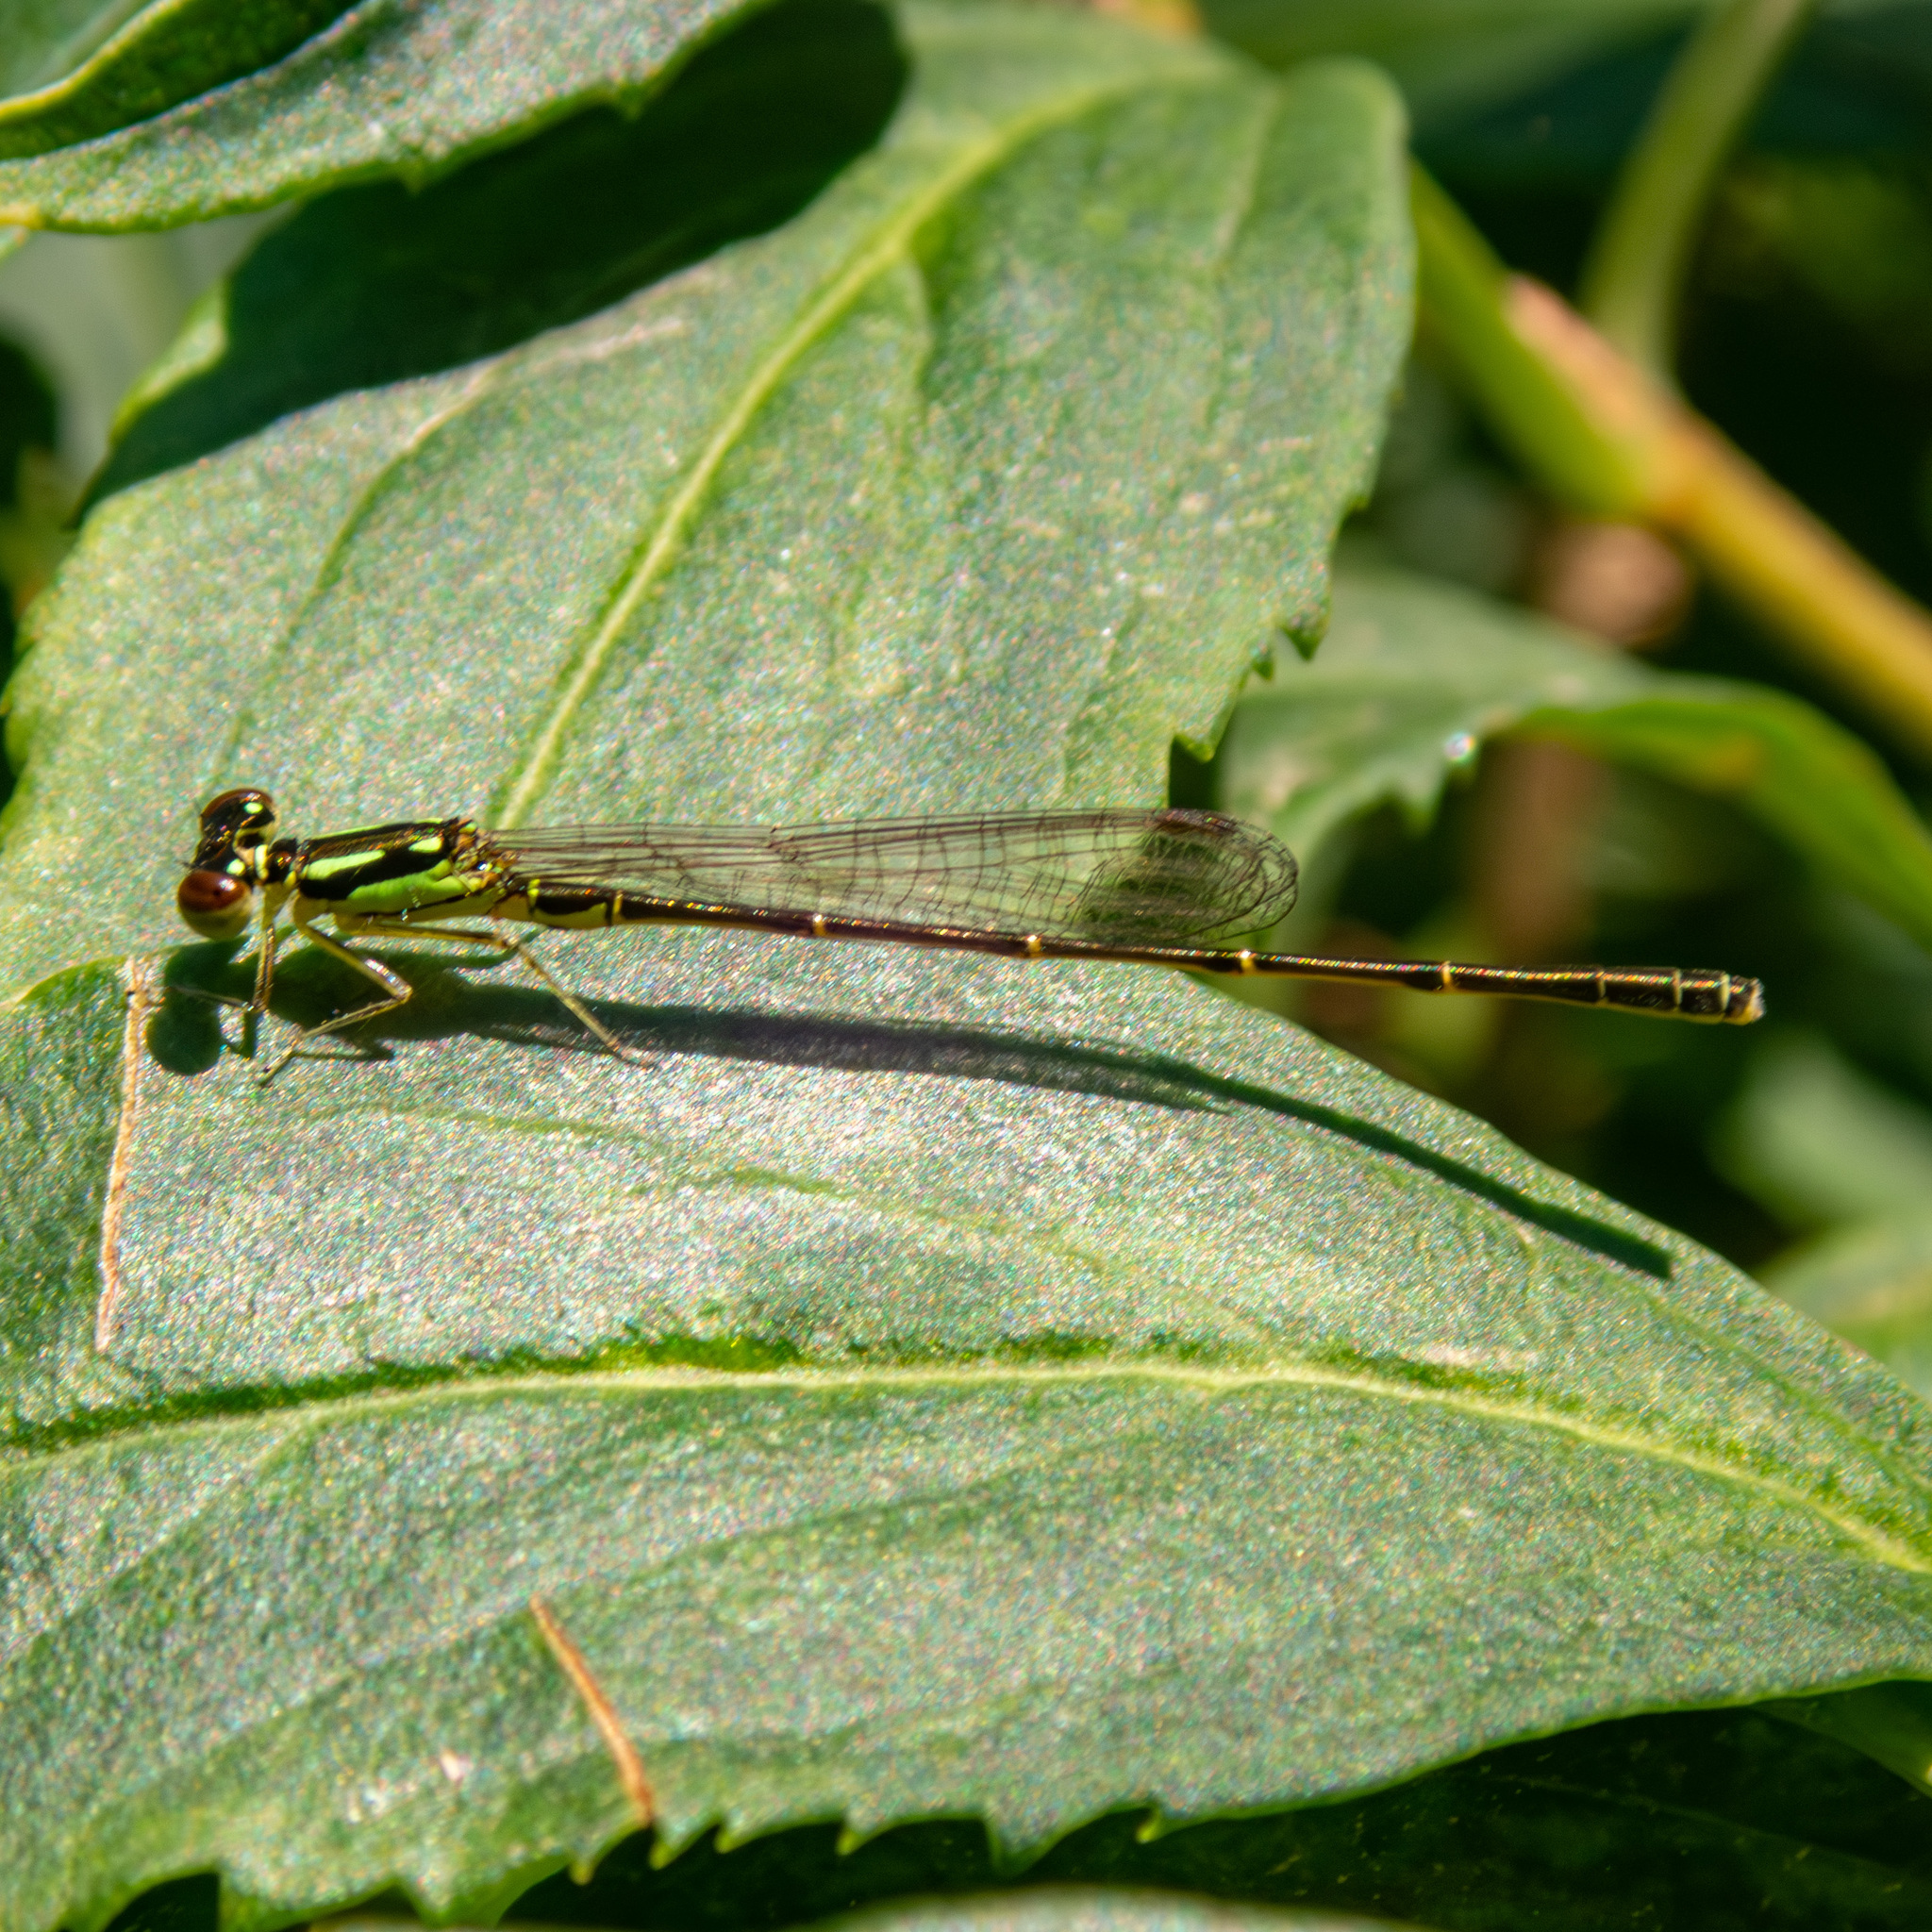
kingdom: Animalia
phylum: Arthropoda
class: Insecta
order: Odonata
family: Coenagrionidae
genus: Ischnura
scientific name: Ischnura posita
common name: Fragile forktail
